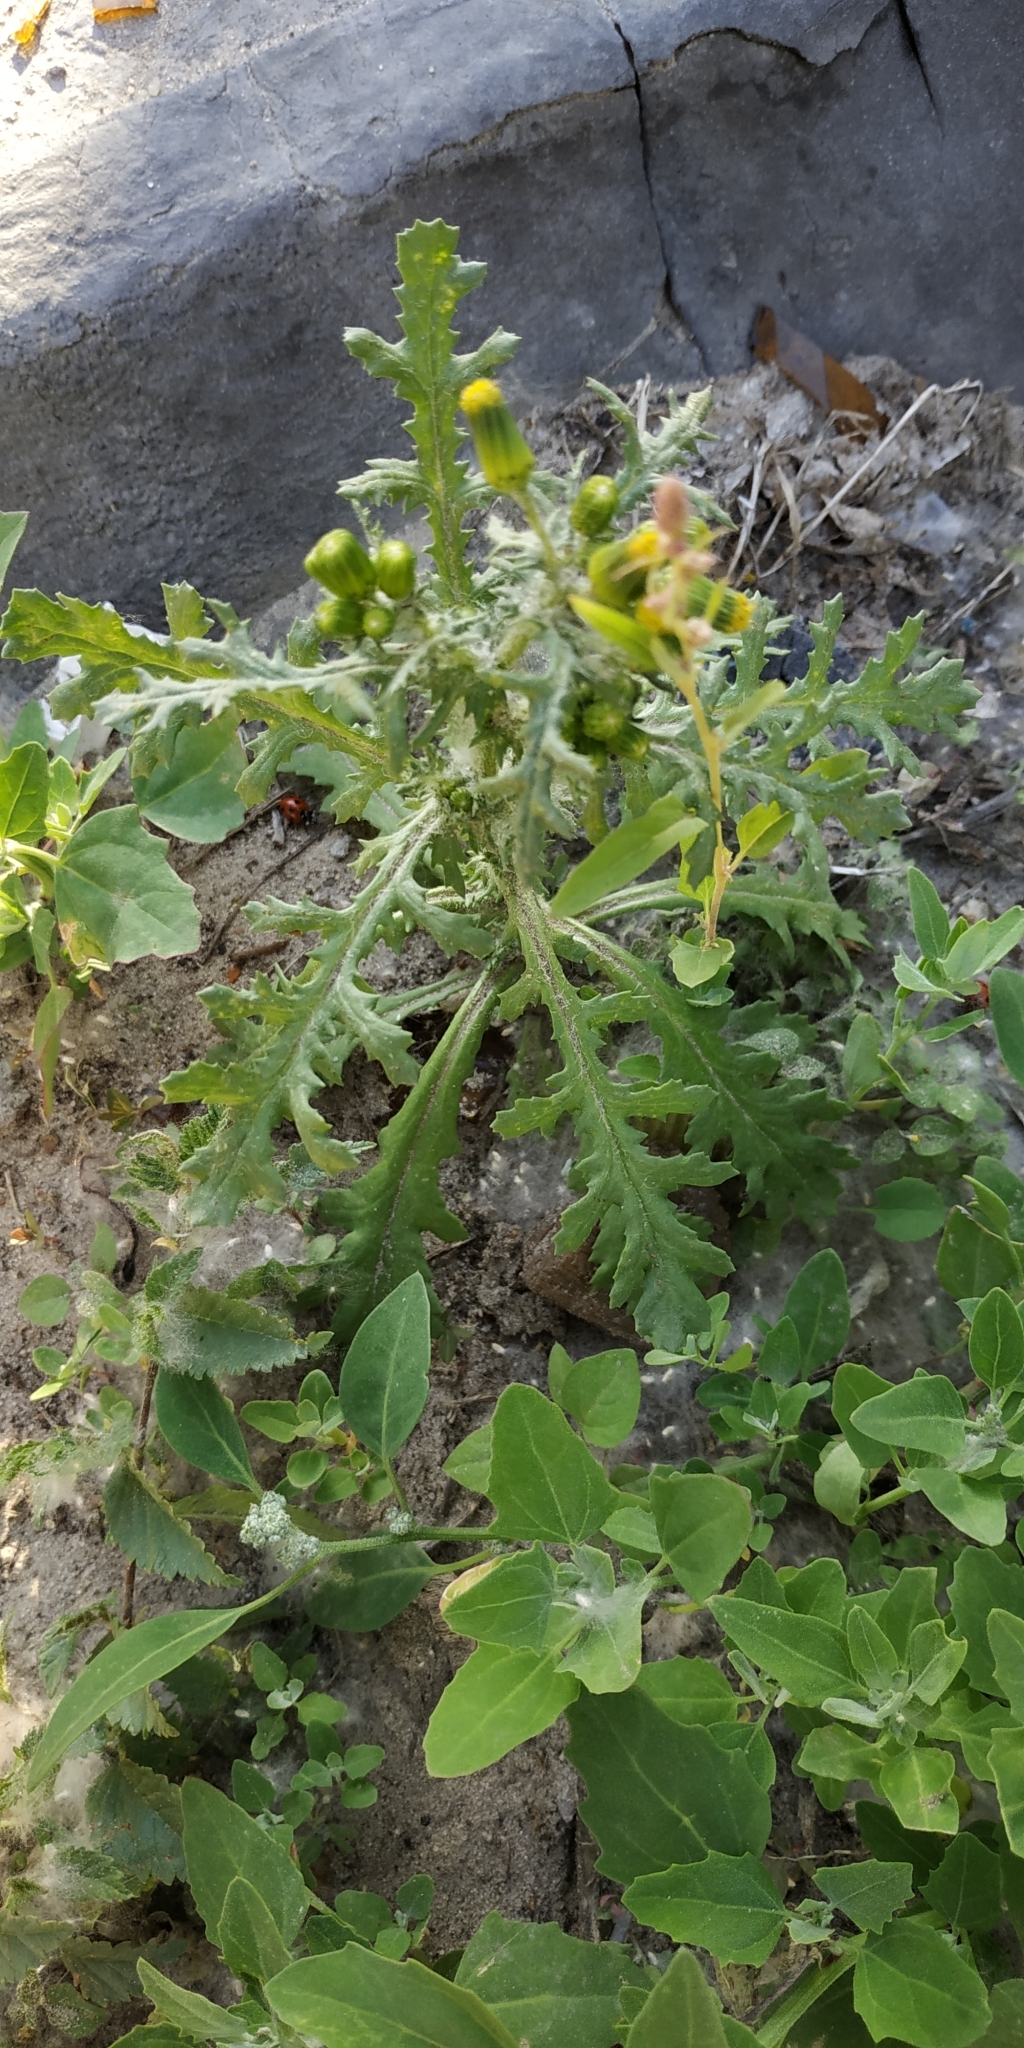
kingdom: Plantae
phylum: Tracheophyta
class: Magnoliopsida
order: Asterales
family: Asteraceae
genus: Senecio
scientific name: Senecio vulgaris
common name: Old-man-in-the-spring
